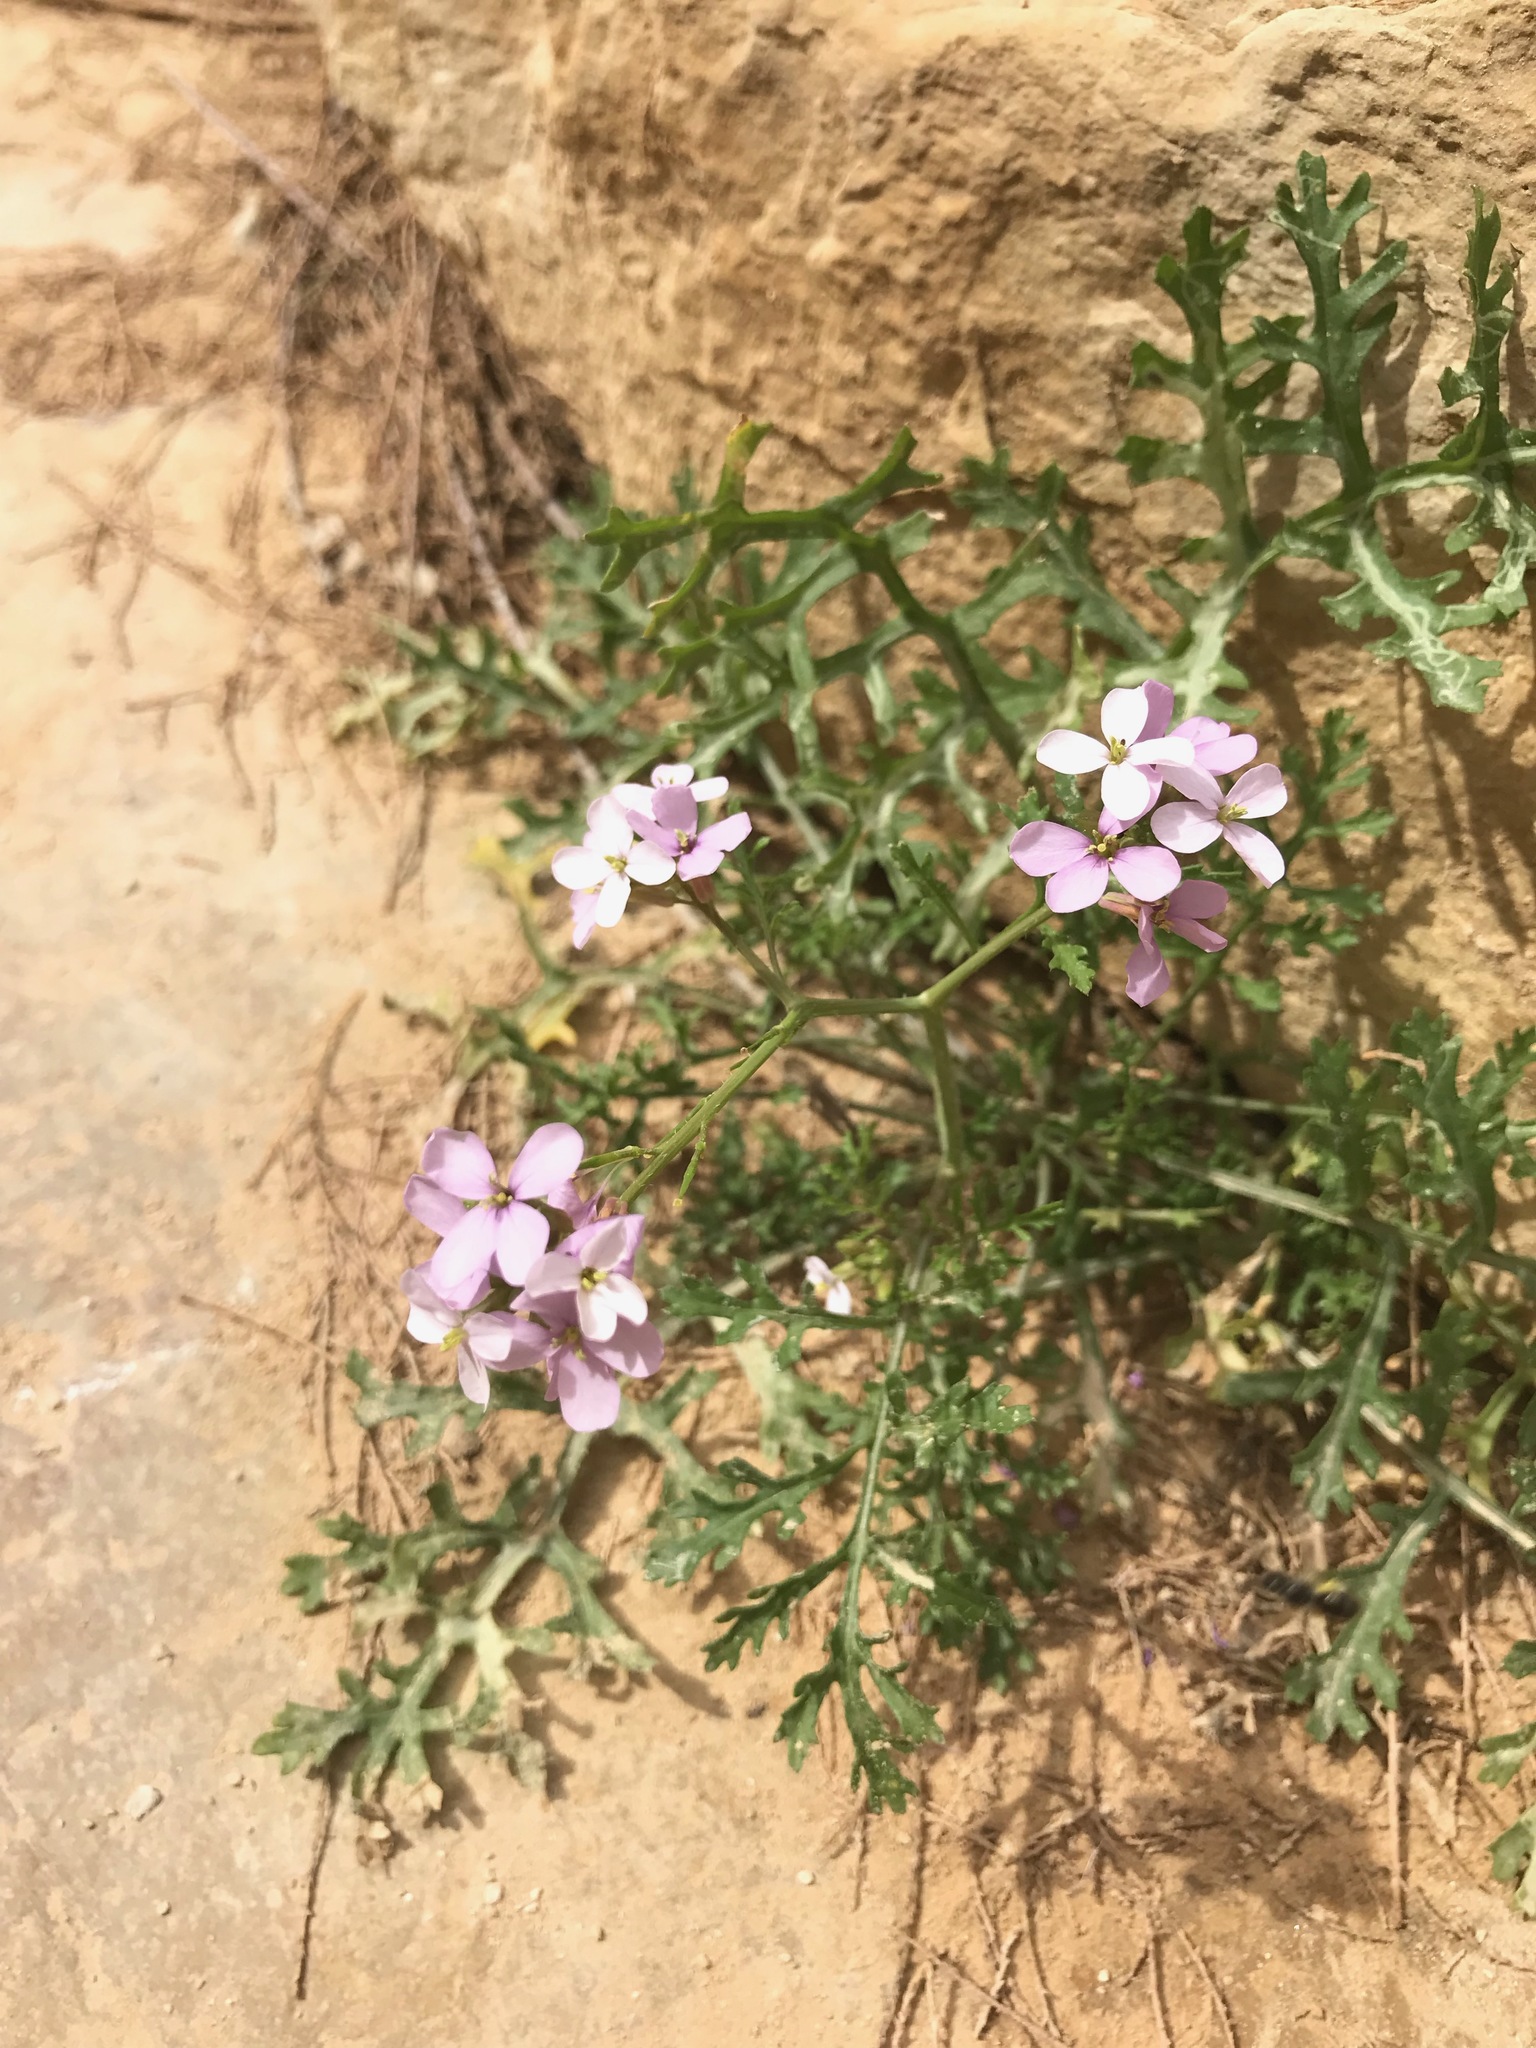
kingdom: Plantae
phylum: Tracheophyta
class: Magnoliopsida
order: Brassicales
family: Brassicaceae
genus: Erucaria
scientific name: Erucaria rostrata
